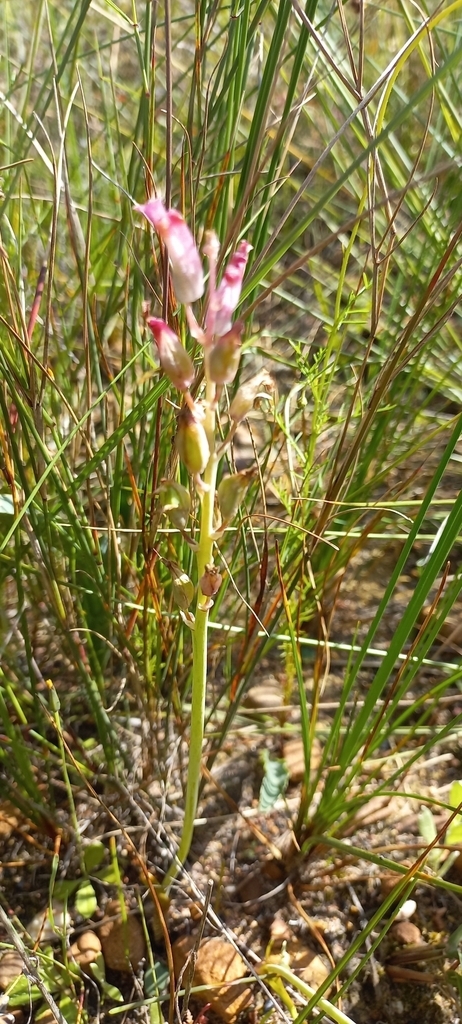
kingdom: Plantae
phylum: Tracheophyta
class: Liliopsida
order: Asparagales
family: Asparagaceae
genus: Lachenalia
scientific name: Lachenalia unifolia
